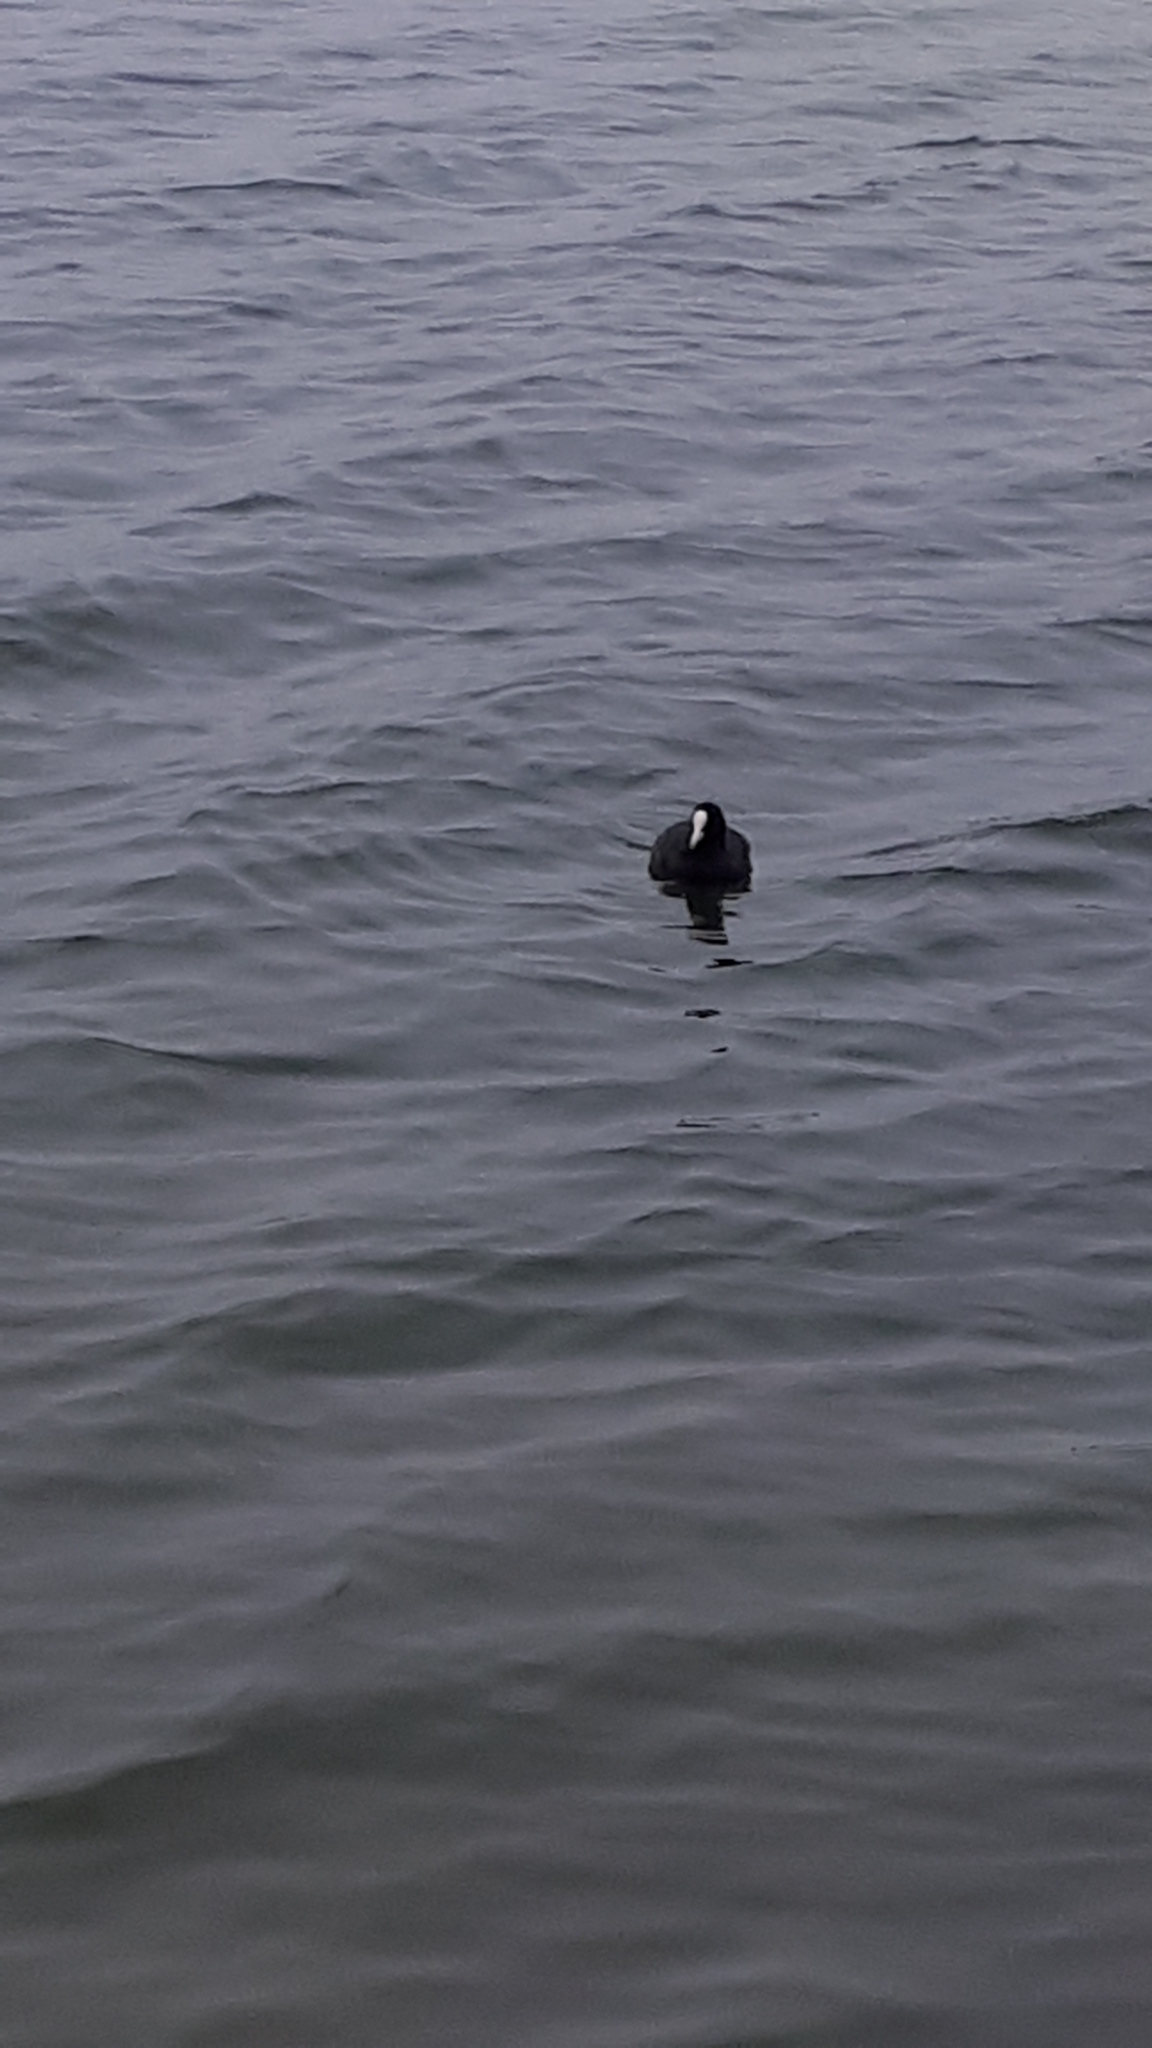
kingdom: Animalia
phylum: Chordata
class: Aves
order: Gruiformes
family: Rallidae
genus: Fulica
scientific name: Fulica atra
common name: Eurasian coot
